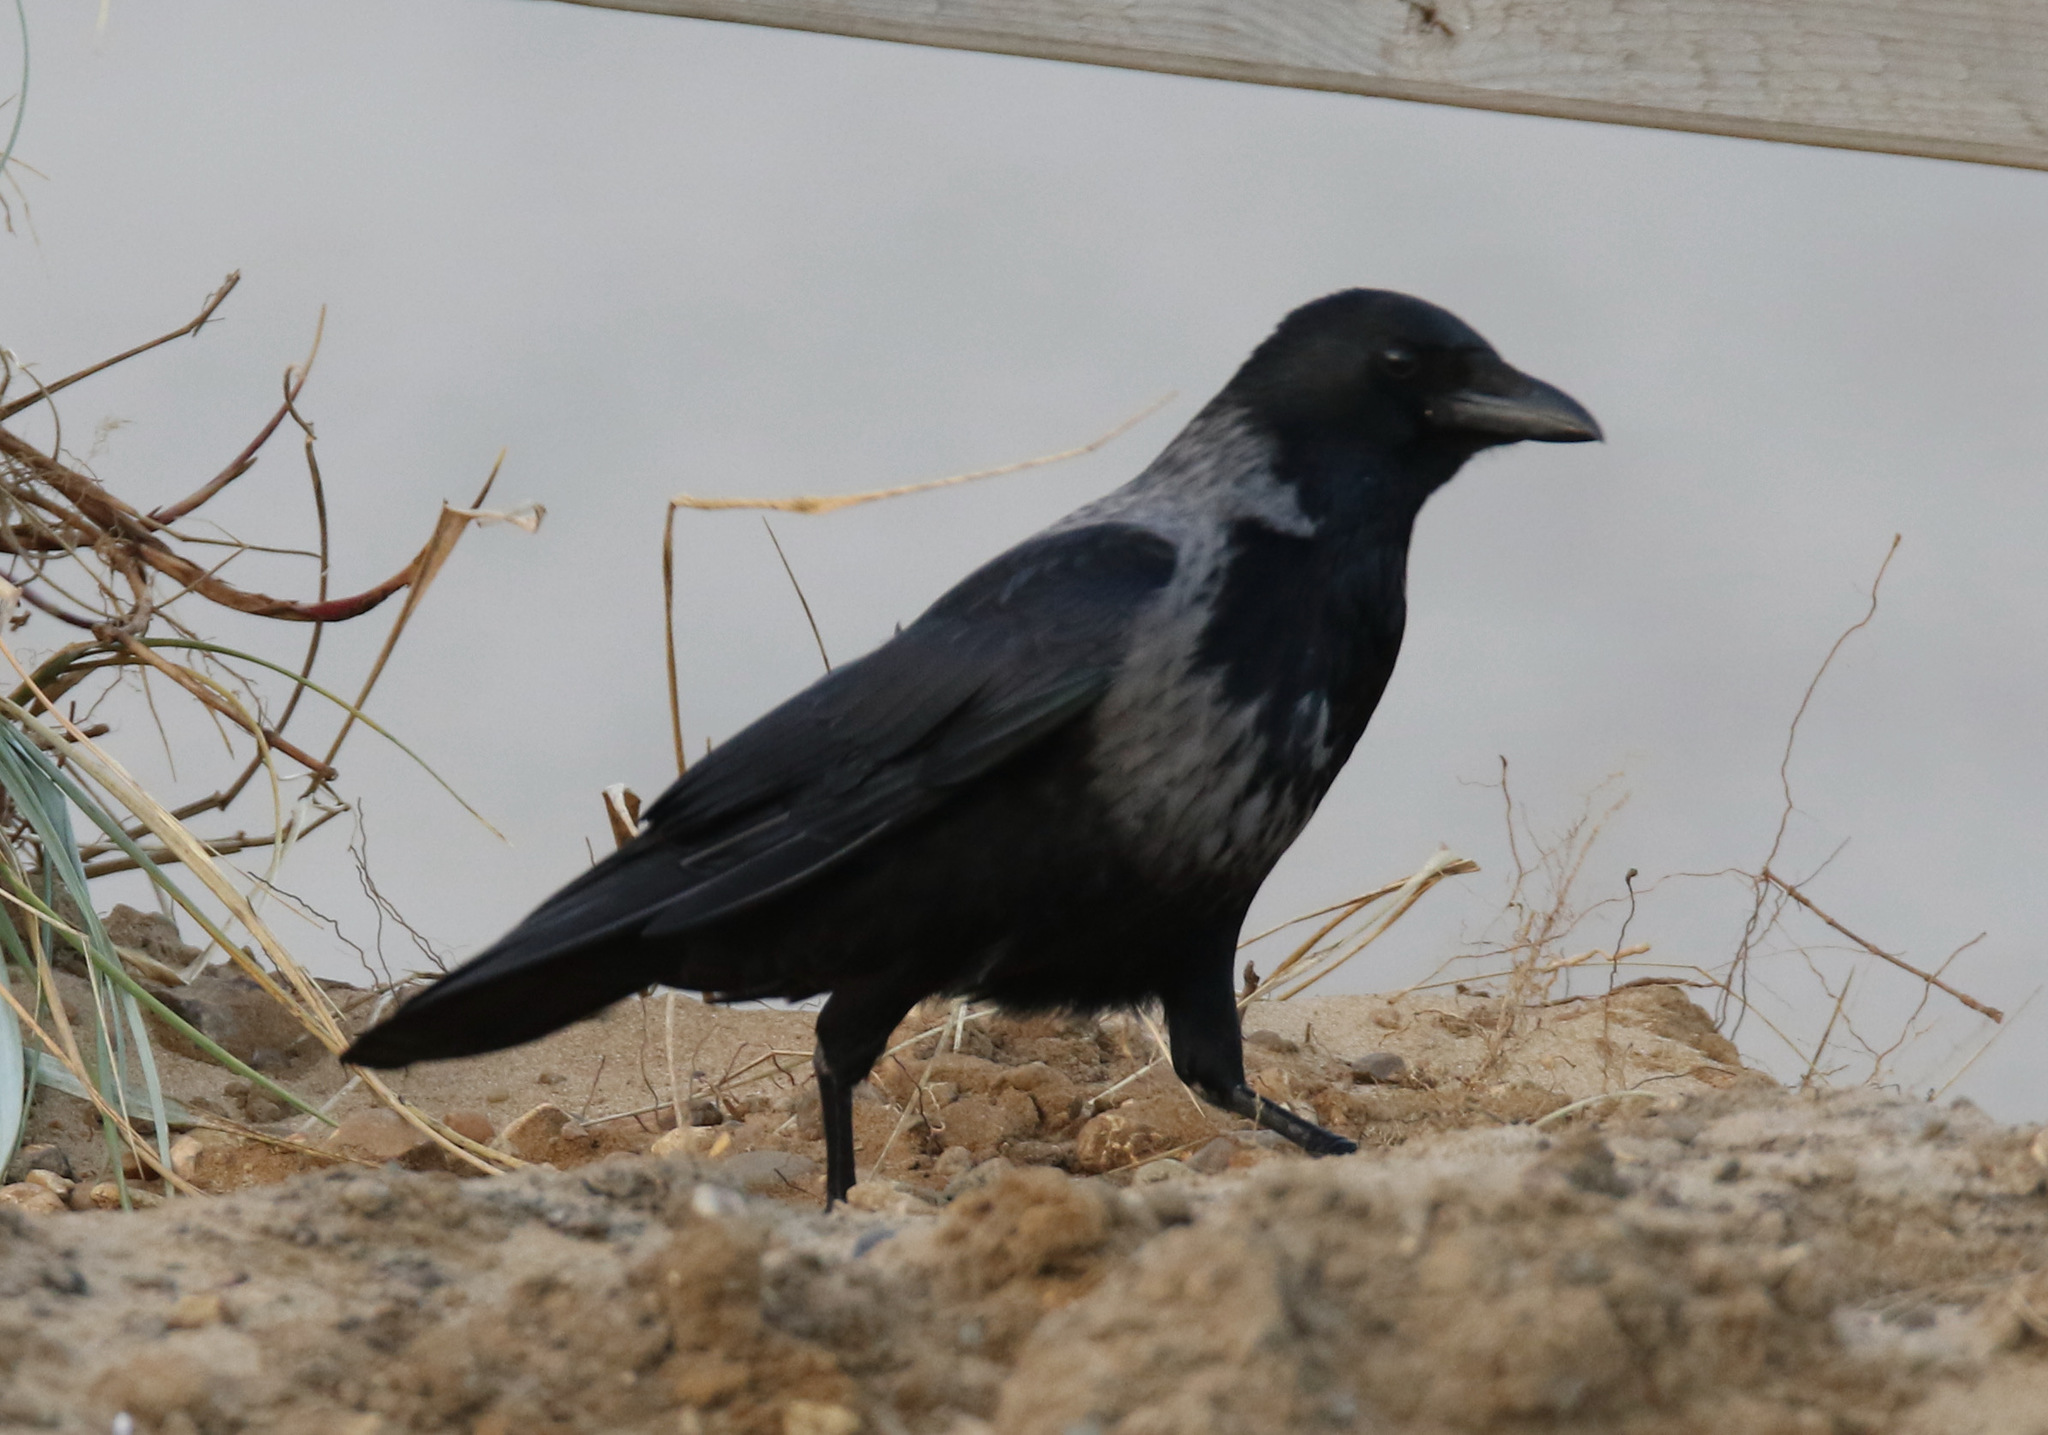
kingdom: Animalia
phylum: Chordata
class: Aves
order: Passeriformes
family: Corvidae
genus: Corvus
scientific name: Corvus
